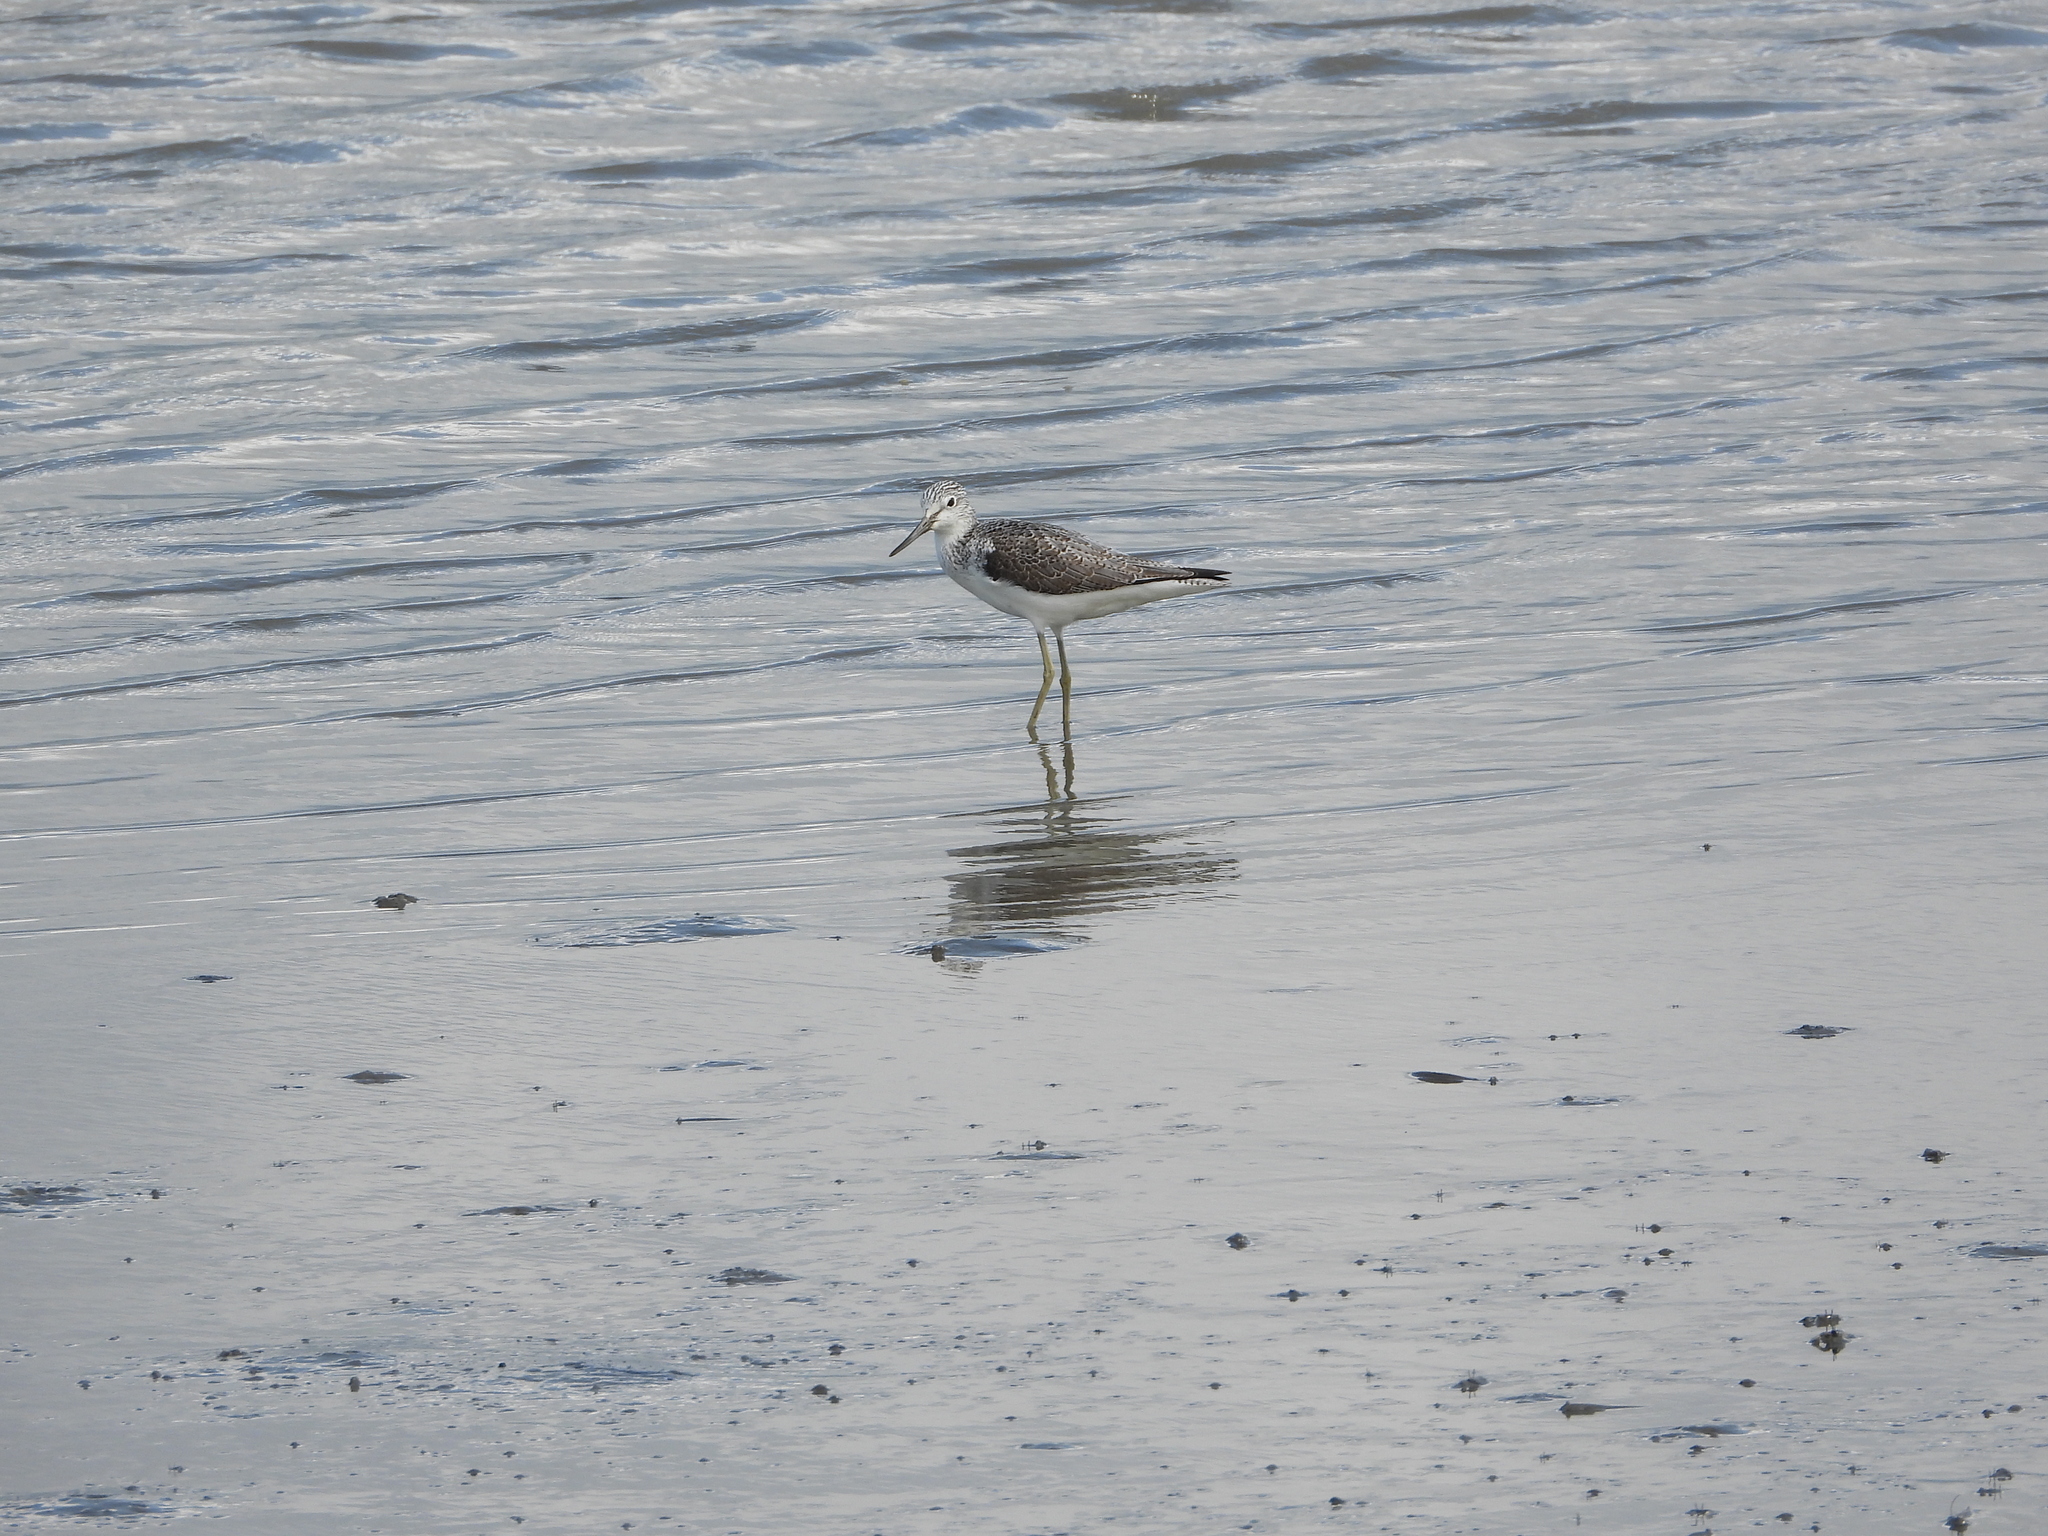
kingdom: Animalia
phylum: Chordata
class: Aves
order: Charadriiformes
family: Scolopacidae
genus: Tringa
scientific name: Tringa nebularia
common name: Common greenshank
